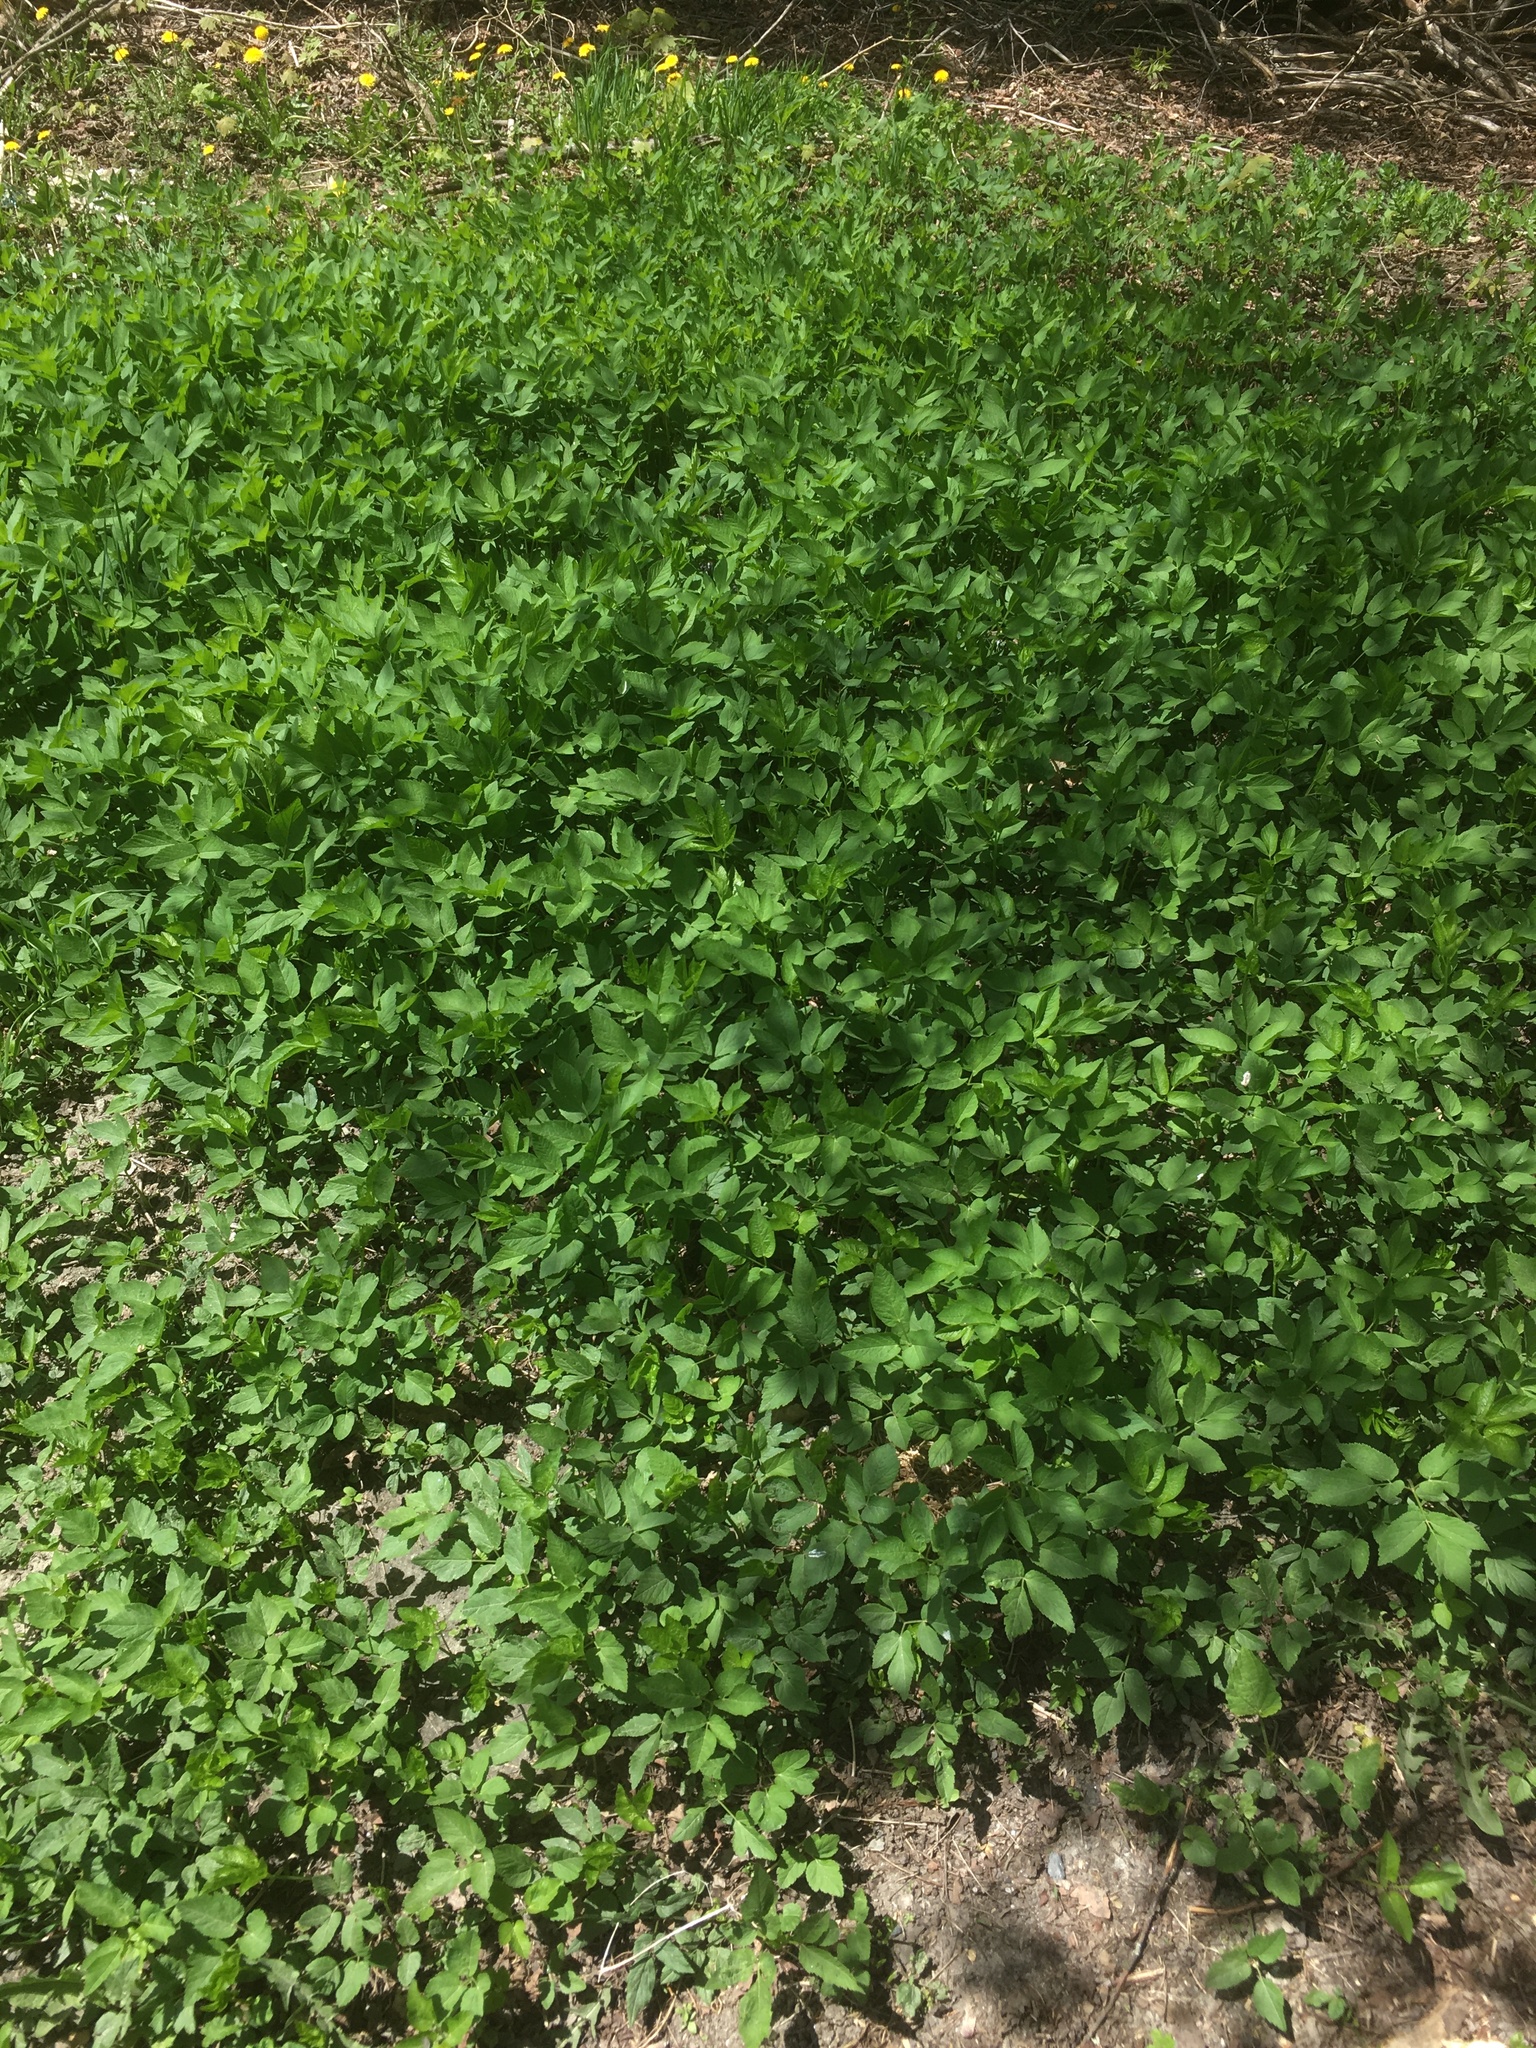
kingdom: Plantae
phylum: Tracheophyta
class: Magnoliopsida
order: Apiales
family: Apiaceae
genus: Aegopodium
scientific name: Aegopodium podagraria
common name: Ground-elder
